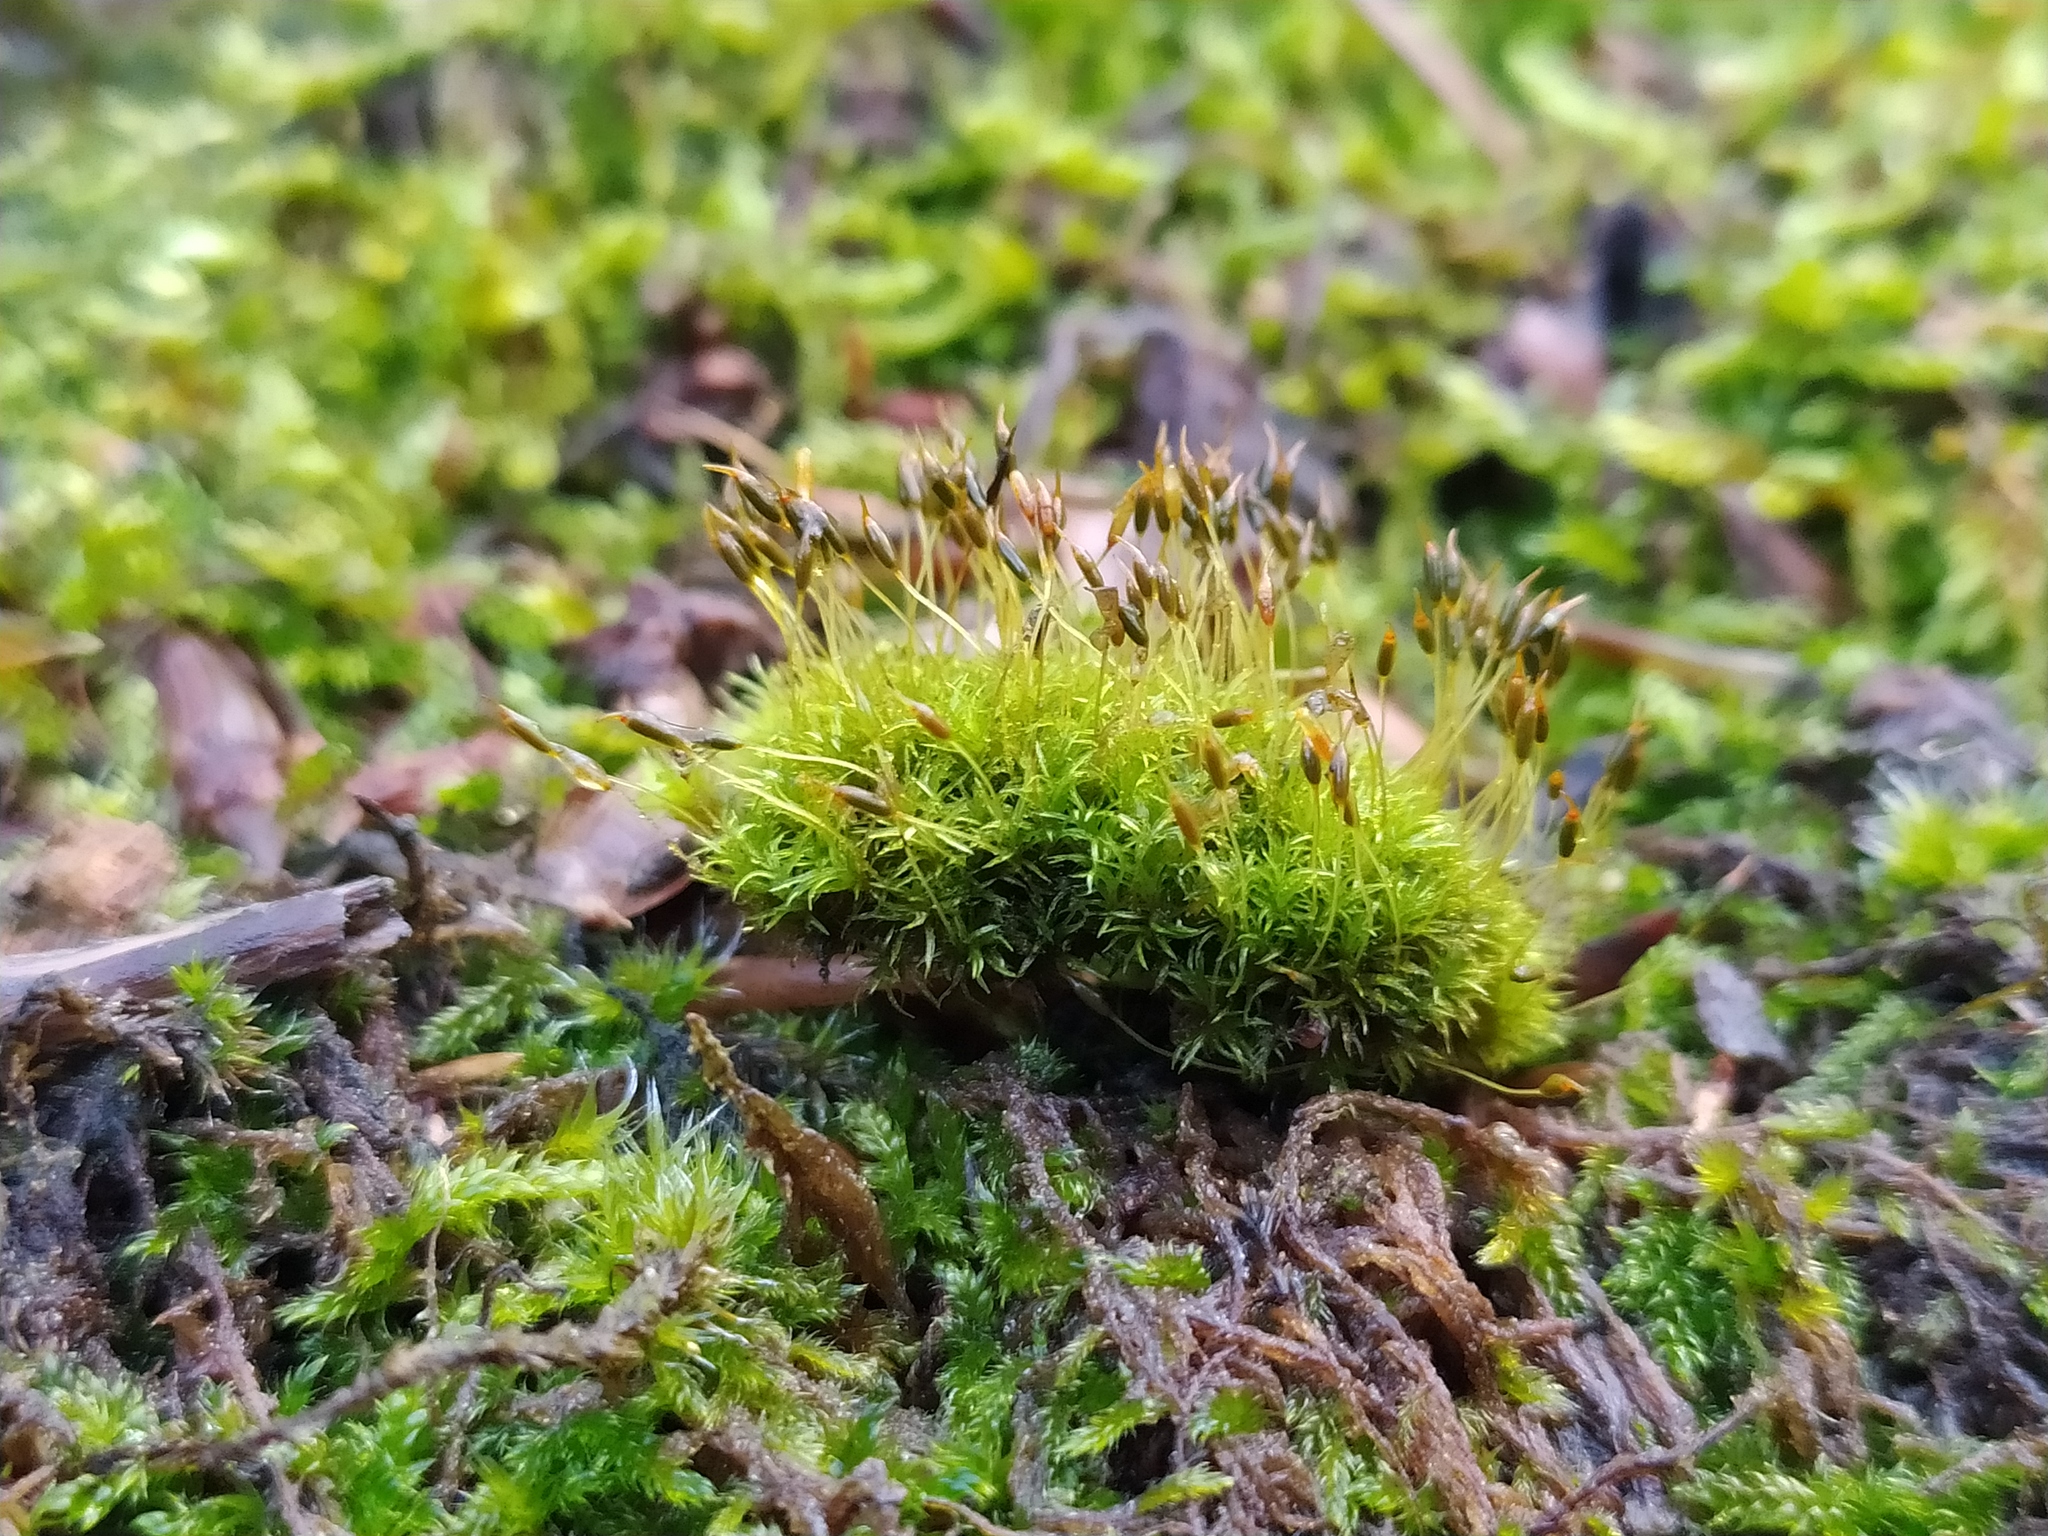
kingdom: Plantae
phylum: Bryophyta
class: Bryopsida
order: Dicranales
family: Rhabdoweisiaceae
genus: Dicranoweisia
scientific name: Dicranoweisia cirrata
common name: Common pincushion
